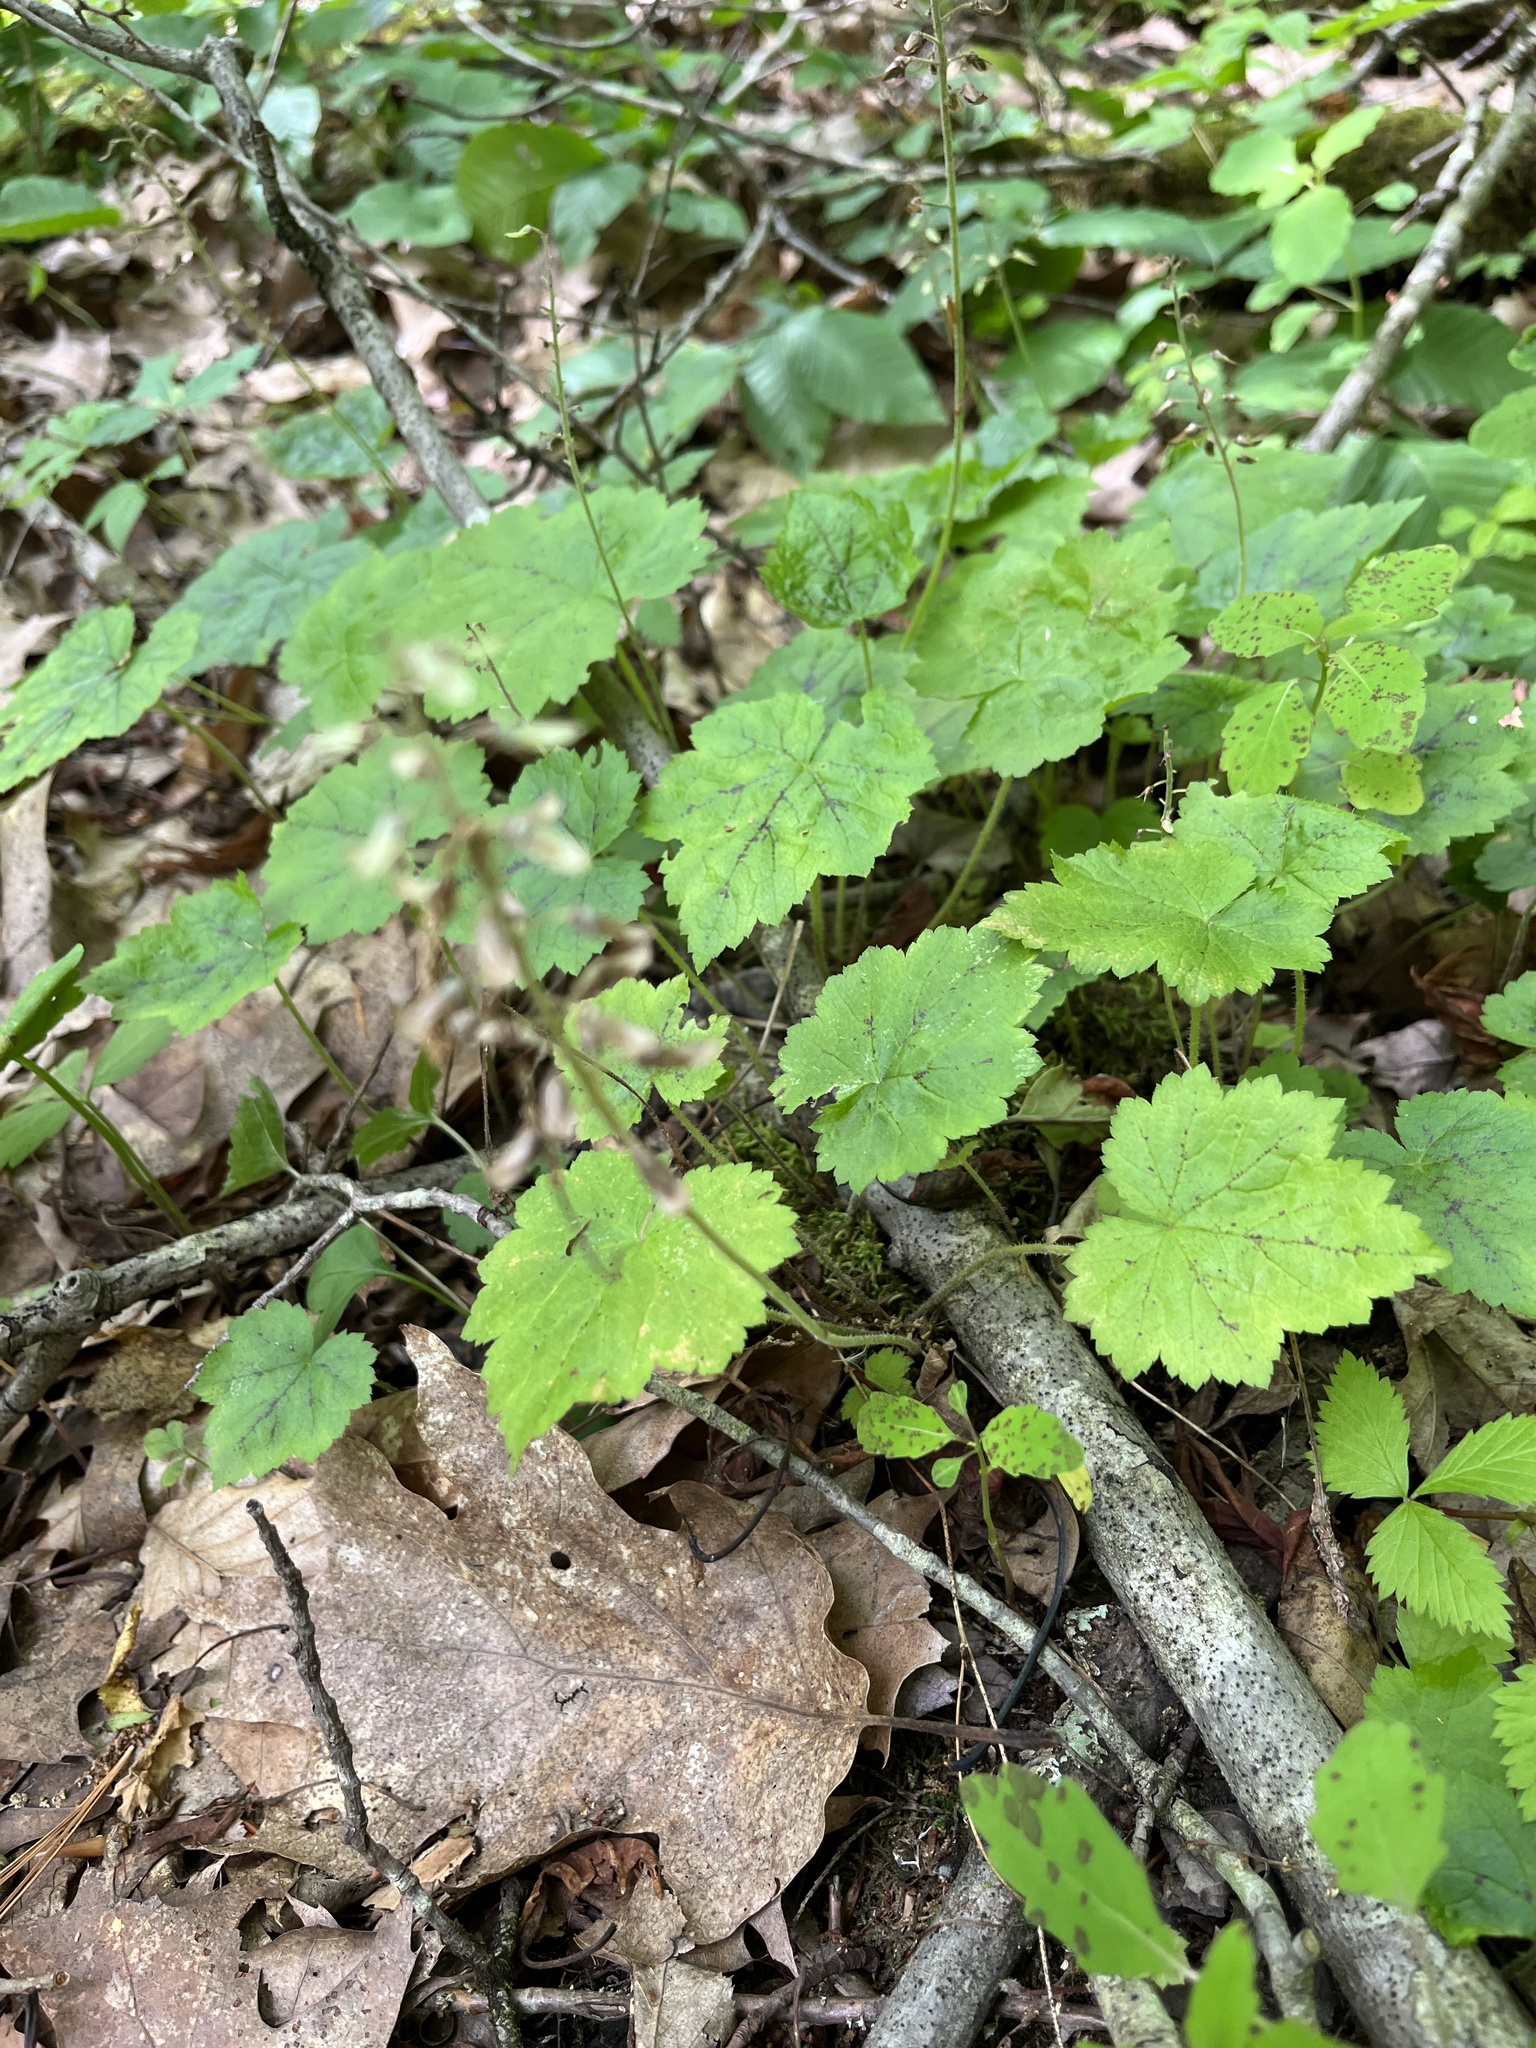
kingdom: Plantae
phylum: Tracheophyta
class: Magnoliopsida
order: Saxifragales
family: Saxifragaceae
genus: Tiarella
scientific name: Tiarella stolonifera
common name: Stoloniferous foamflower
